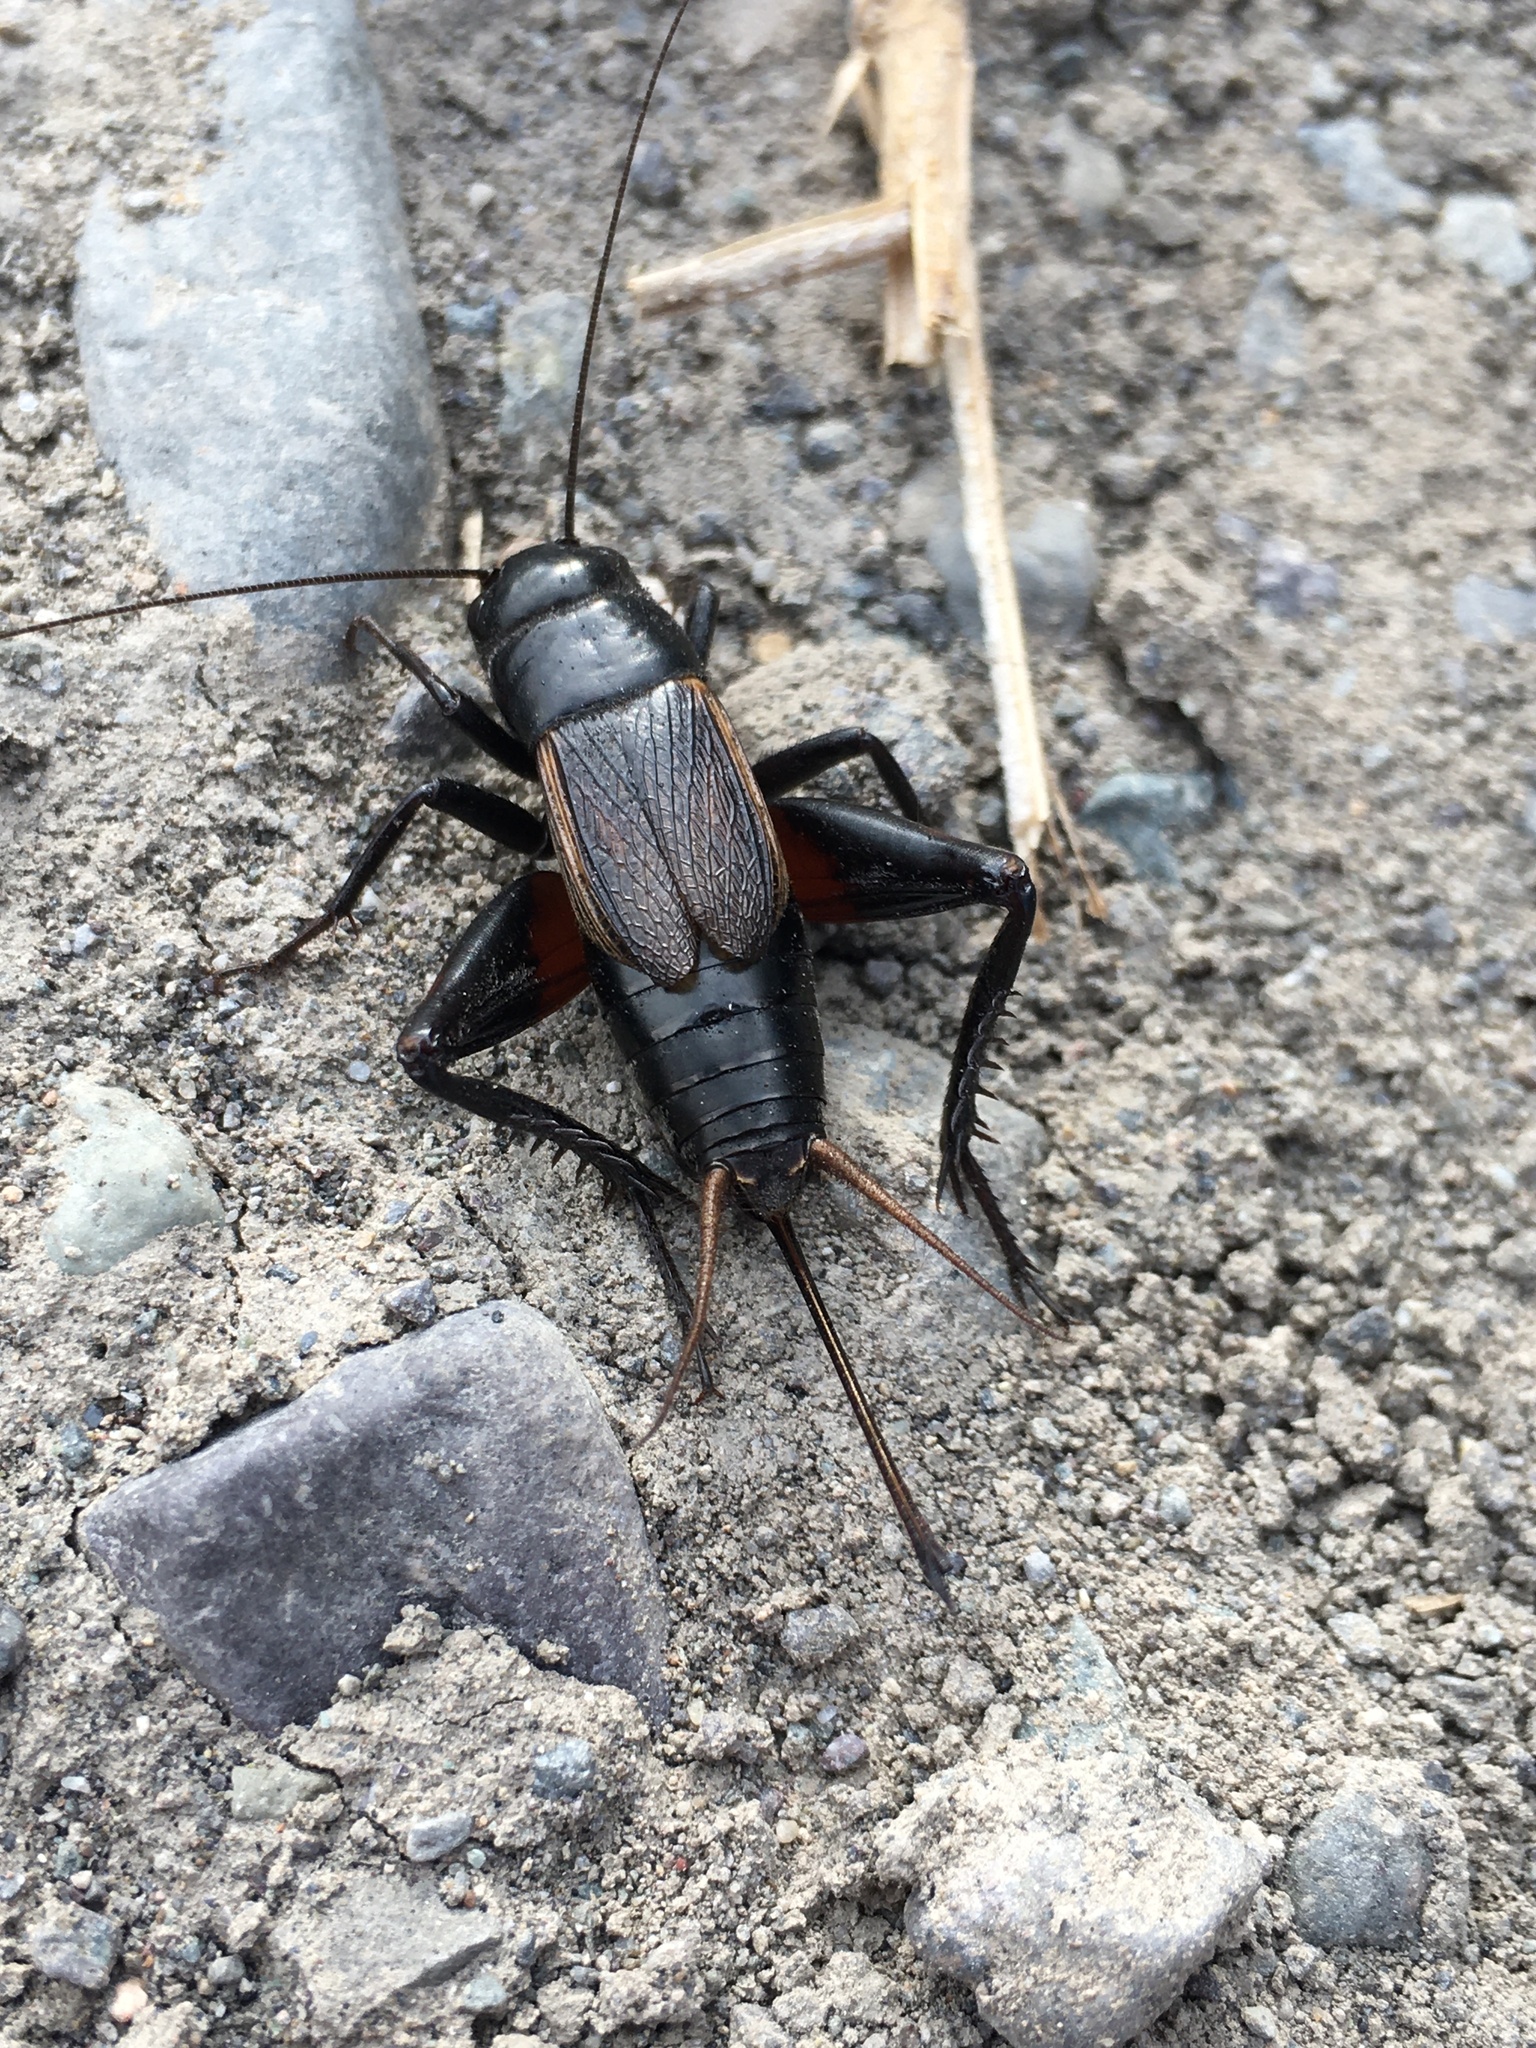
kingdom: Animalia
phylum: Arthropoda
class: Insecta
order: Orthoptera
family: Gryllidae
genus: Gryllus
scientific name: Gryllus pennsylvanicus
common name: Fall field cricket
